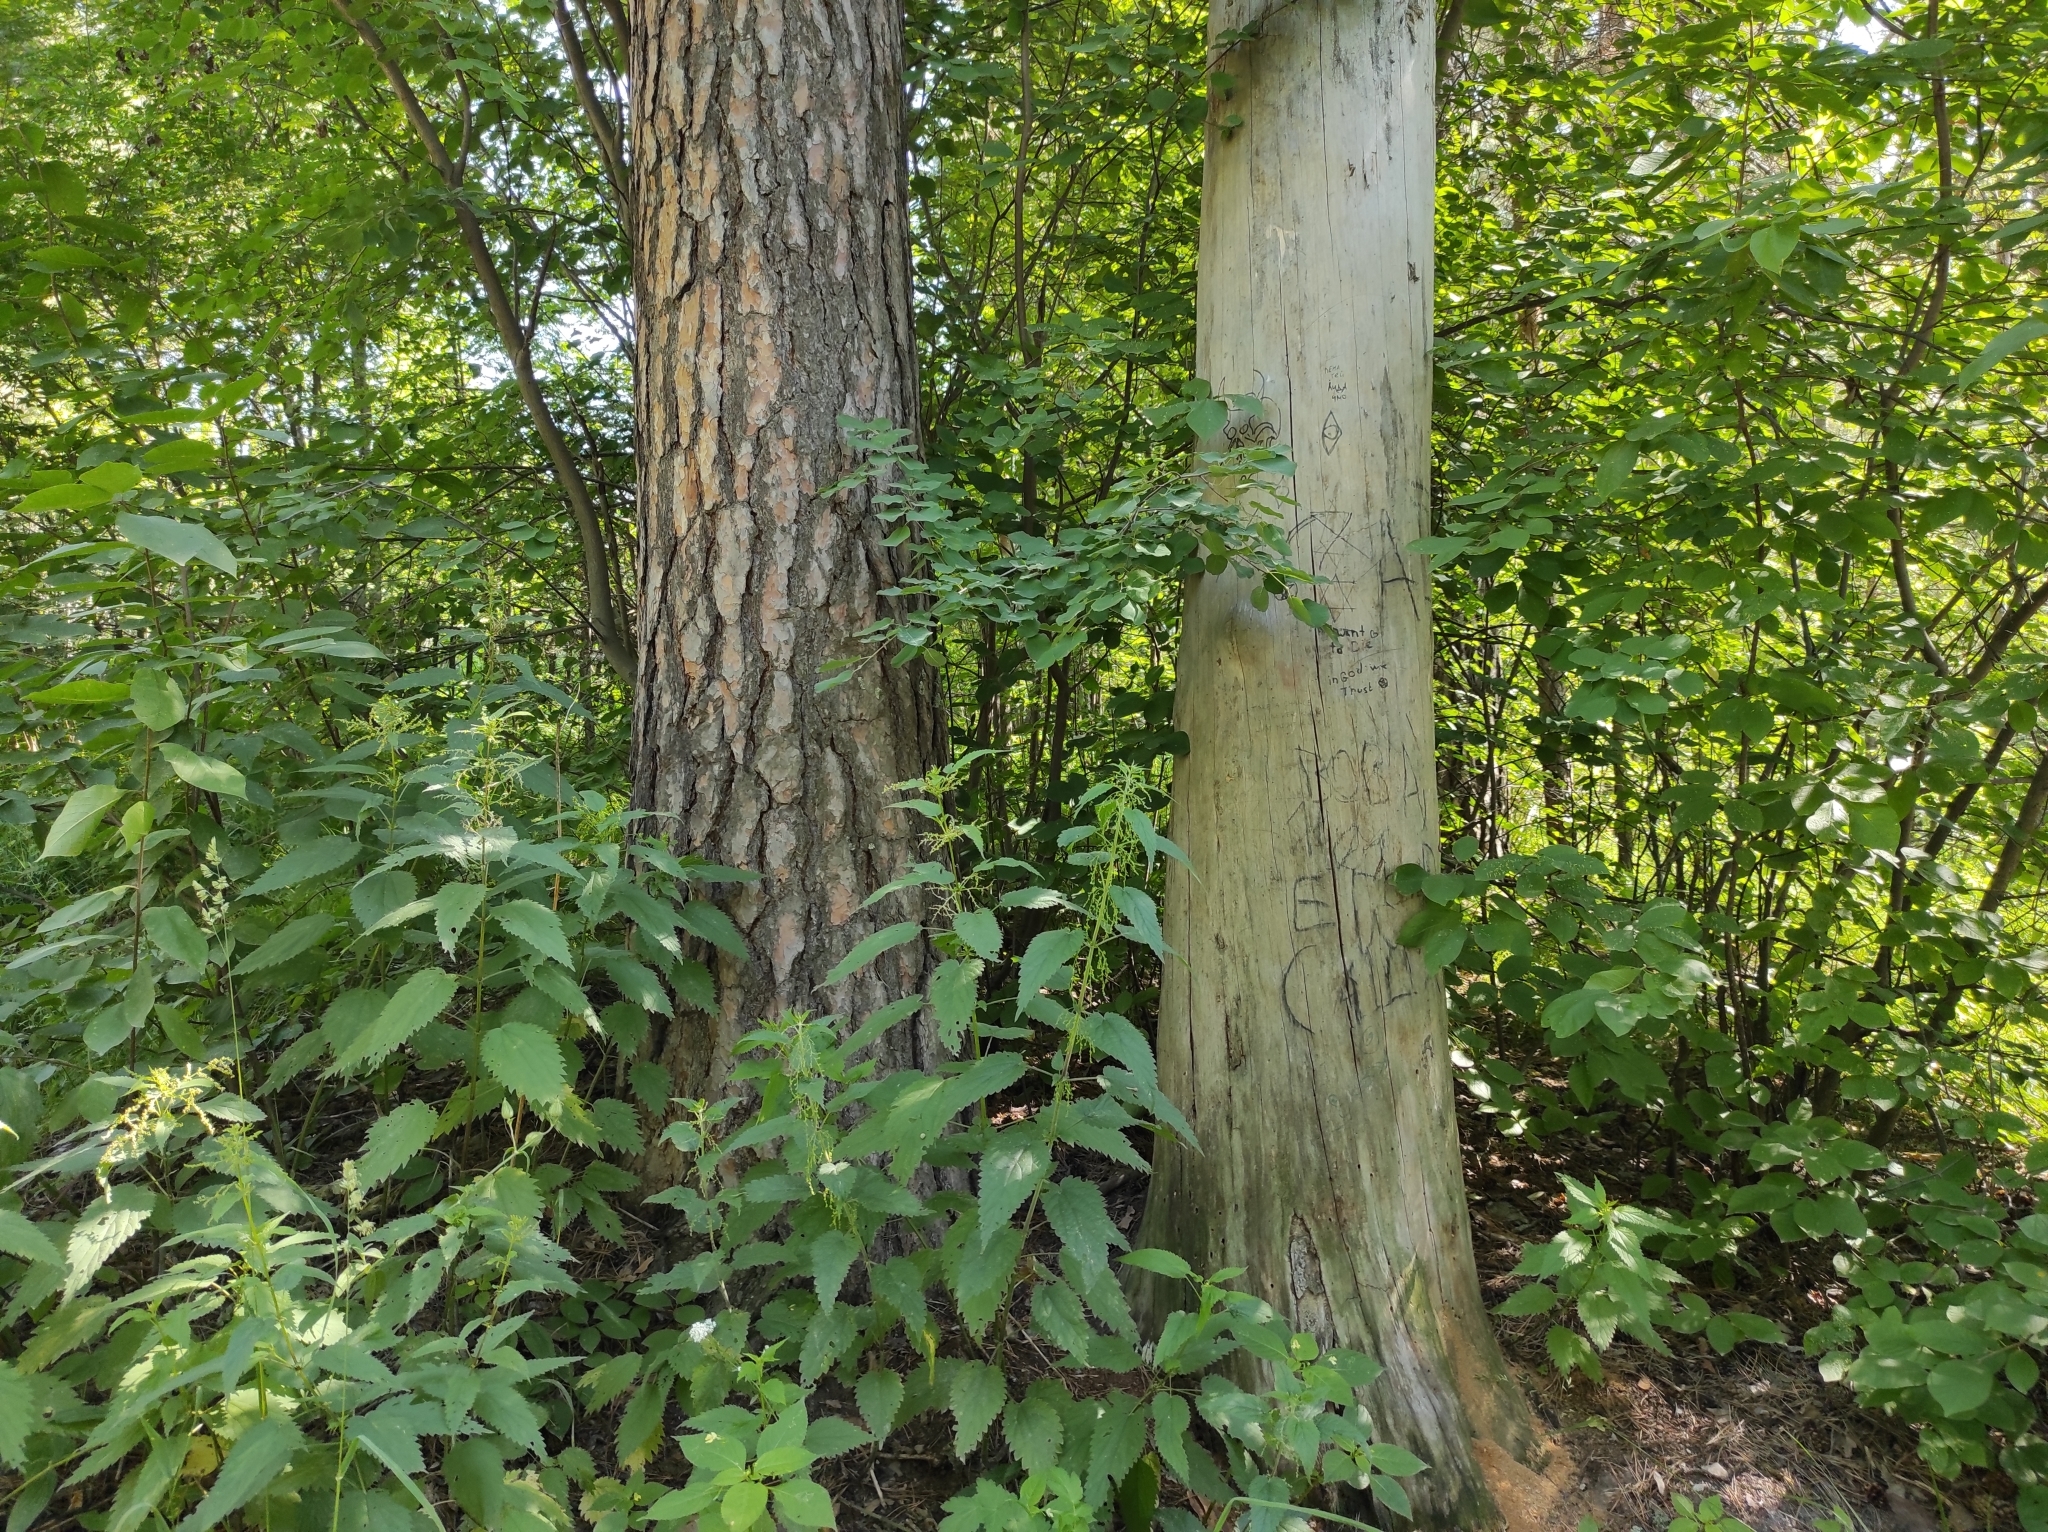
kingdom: Plantae
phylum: Tracheophyta
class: Pinopsida
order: Pinales
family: Pinaceae
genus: Pinus
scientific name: Pinus sylvestris
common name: Scots pine
